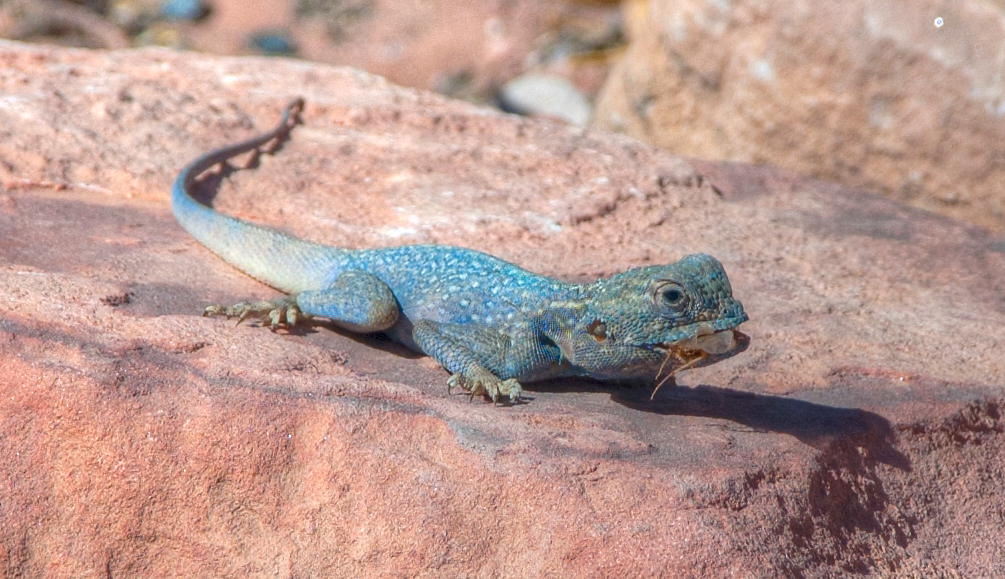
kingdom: Animalia
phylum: Chordata
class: Squamata
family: Agamidae
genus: Pseudotrapelus
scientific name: Pseudotrapelus sinaitus
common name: Sinai agama
